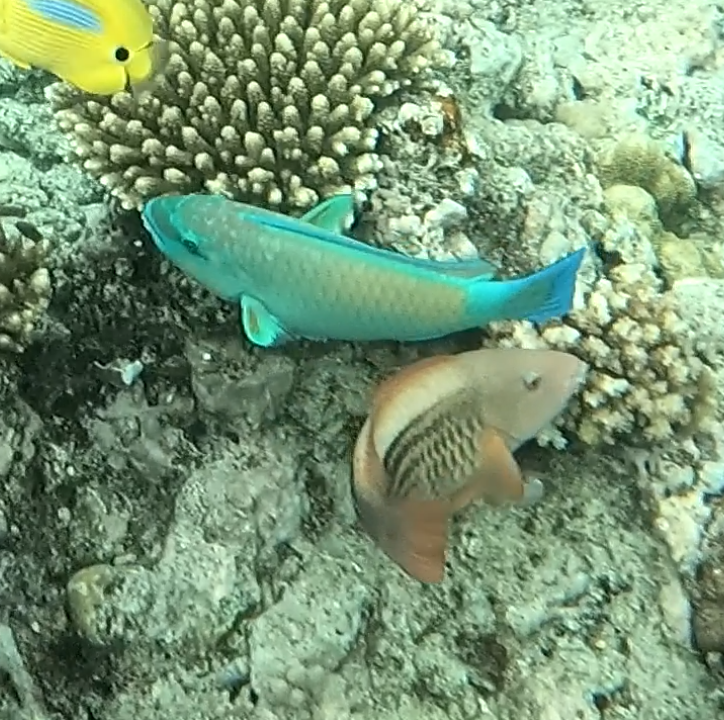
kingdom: Animalia
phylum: Chordata
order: Perciformes
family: Scaridae
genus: Chlorurus
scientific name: Chlorurus spilurus
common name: Bullethead parrotfish
